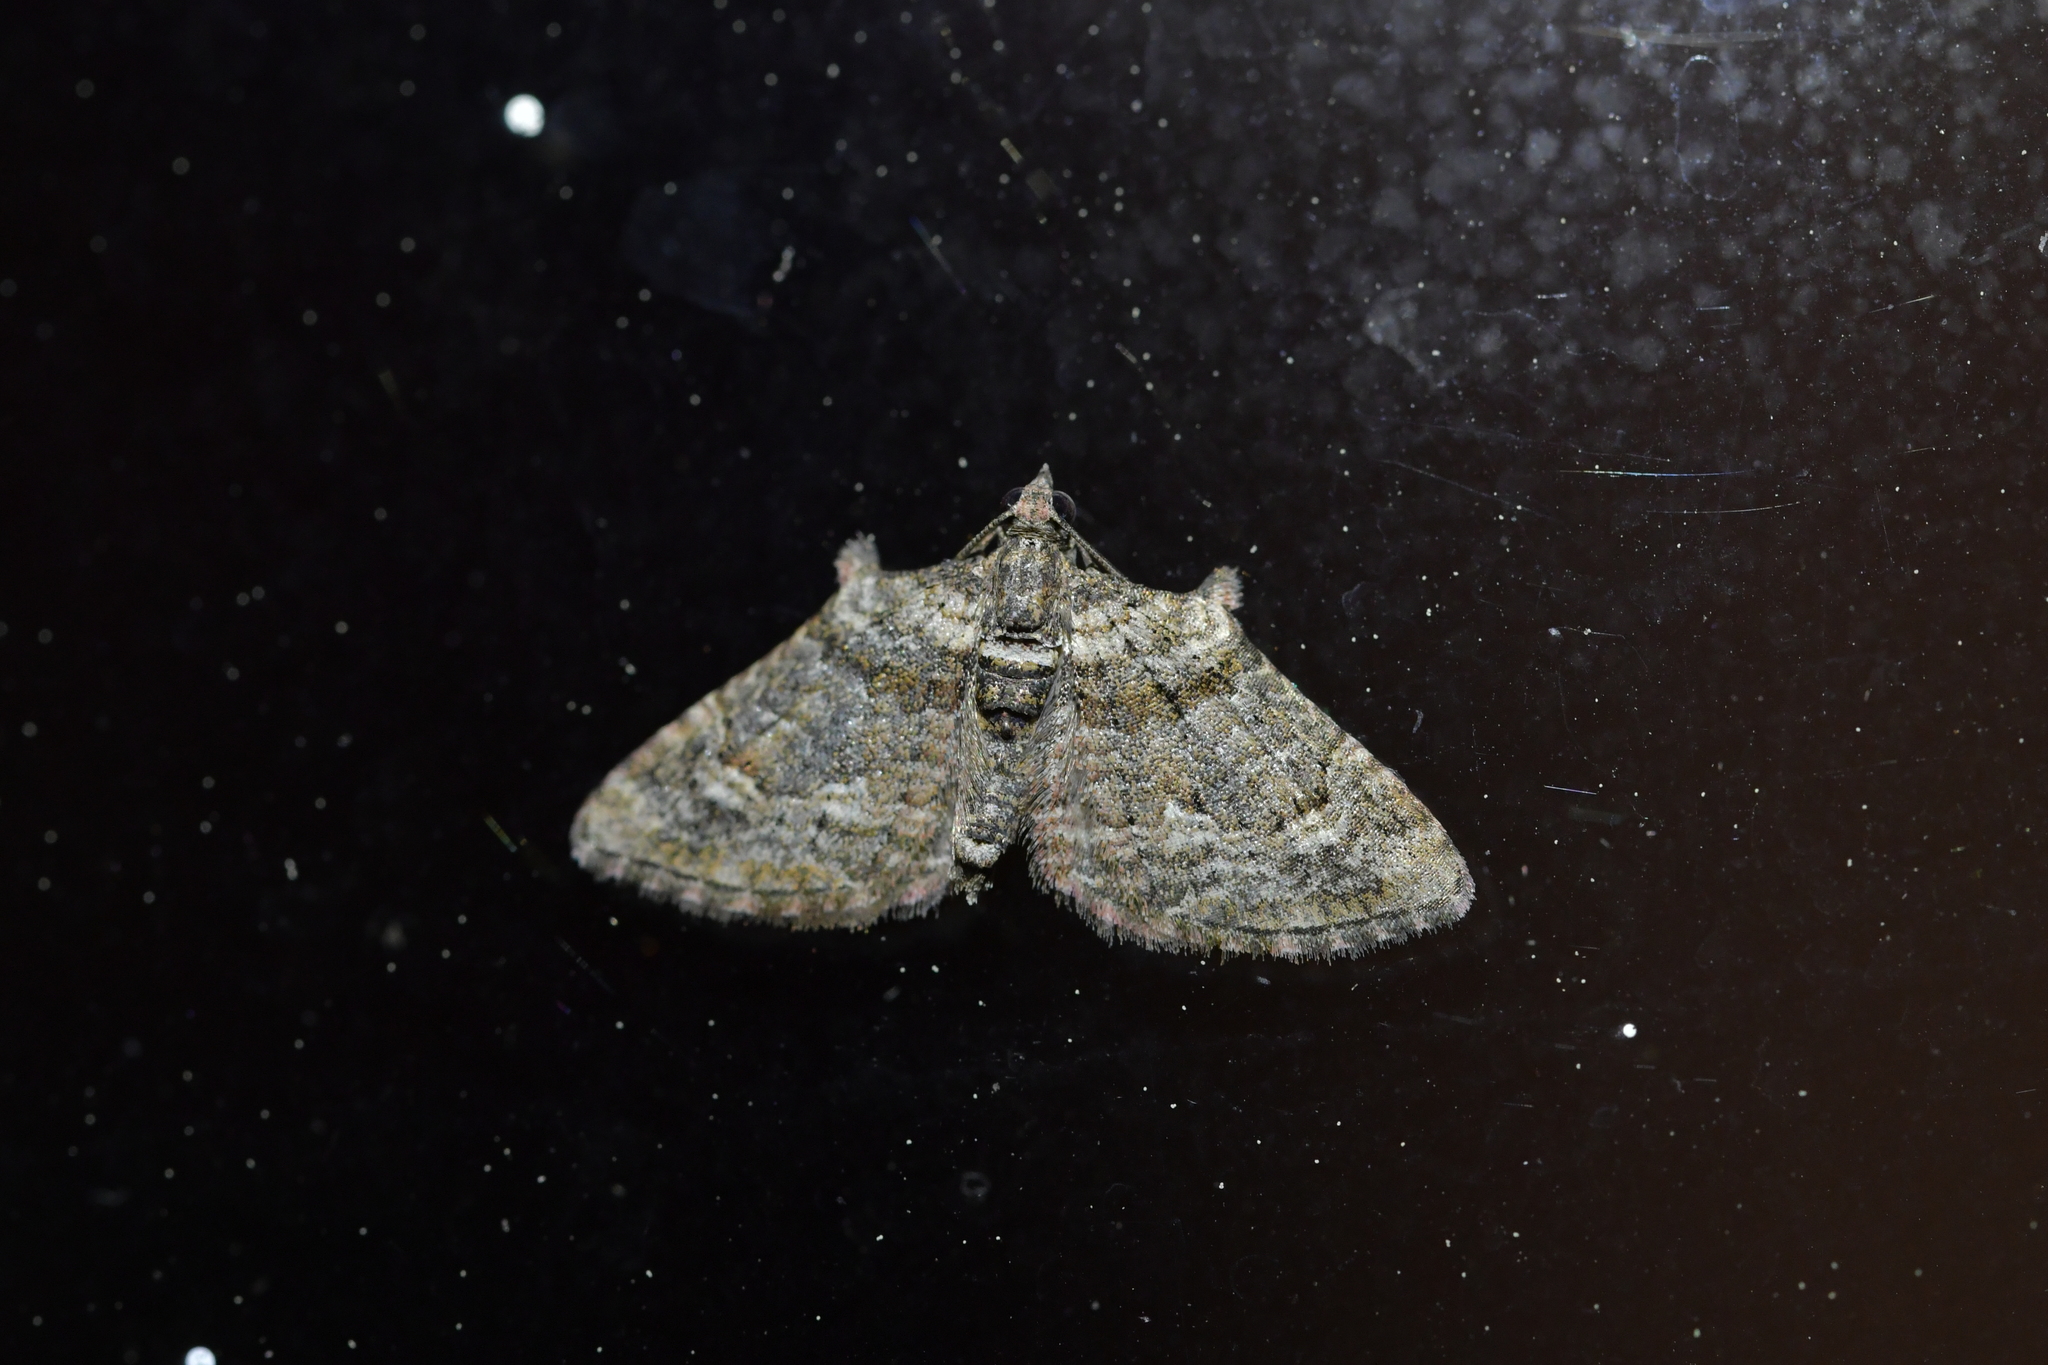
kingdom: Animalia
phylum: Arthropoda
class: Insecta
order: Lepidoptera
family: Geometridae
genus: Phrissogonus
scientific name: Phrissogonus laticostata
